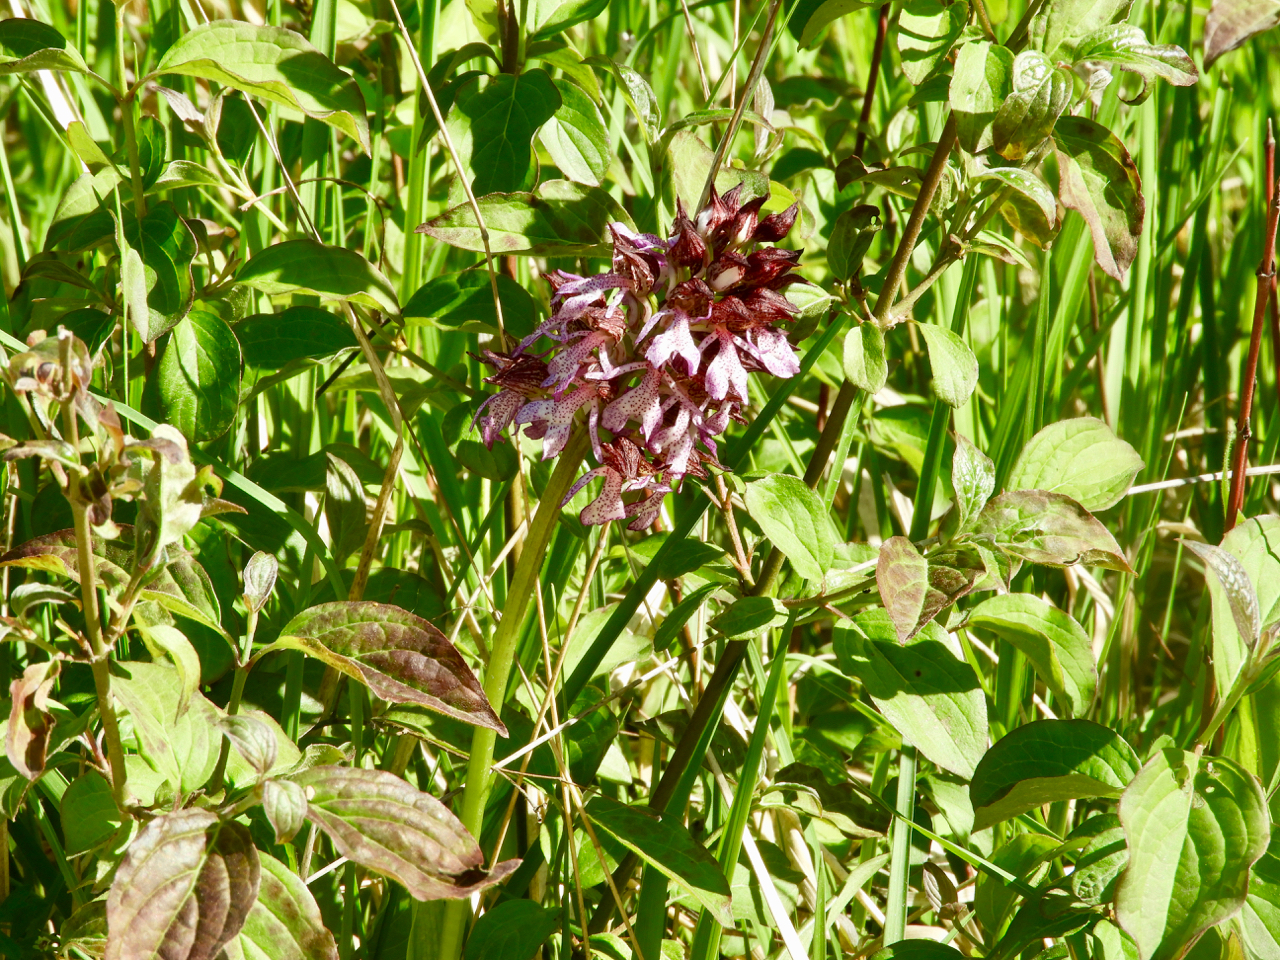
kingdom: Plantae
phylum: Tracheophyta
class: Liliopsida
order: Asparagales
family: Orchidaceae
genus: Orchis
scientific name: Orchis purpurea
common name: Lady orchid
